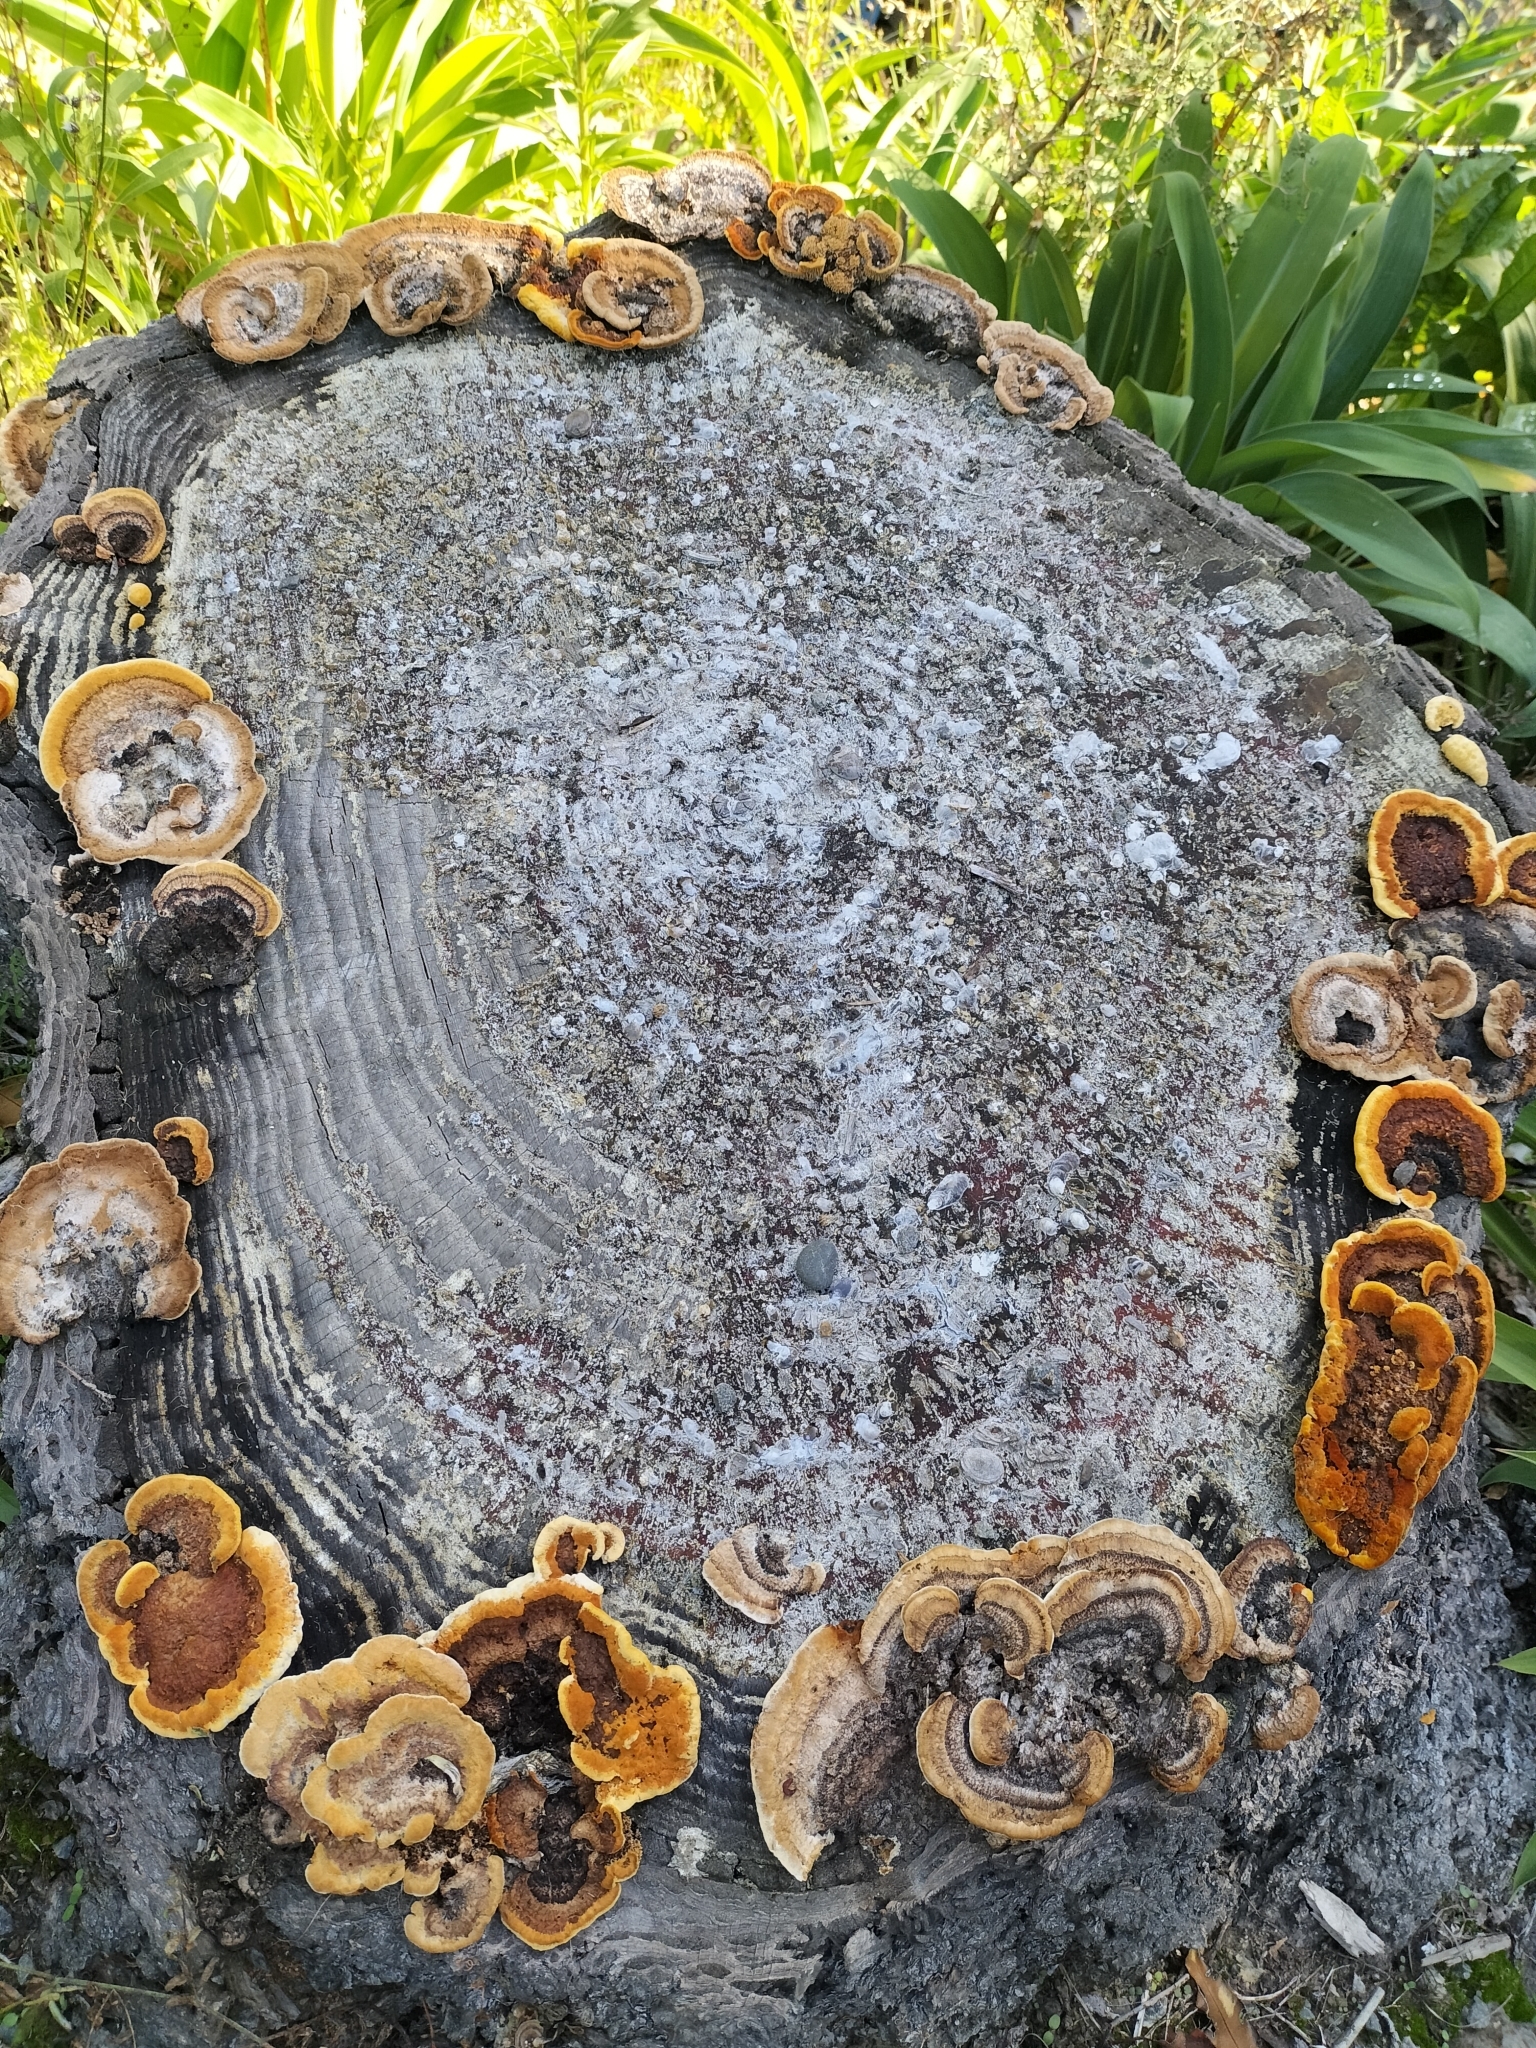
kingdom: Fungi
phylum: Basidiomycota
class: Agaricomycetes
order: Gloeophyllales
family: Gloeophyllaceae
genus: Gloeophyllum
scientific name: Gloeophyllum sepiarium
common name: Conifer mazegill
